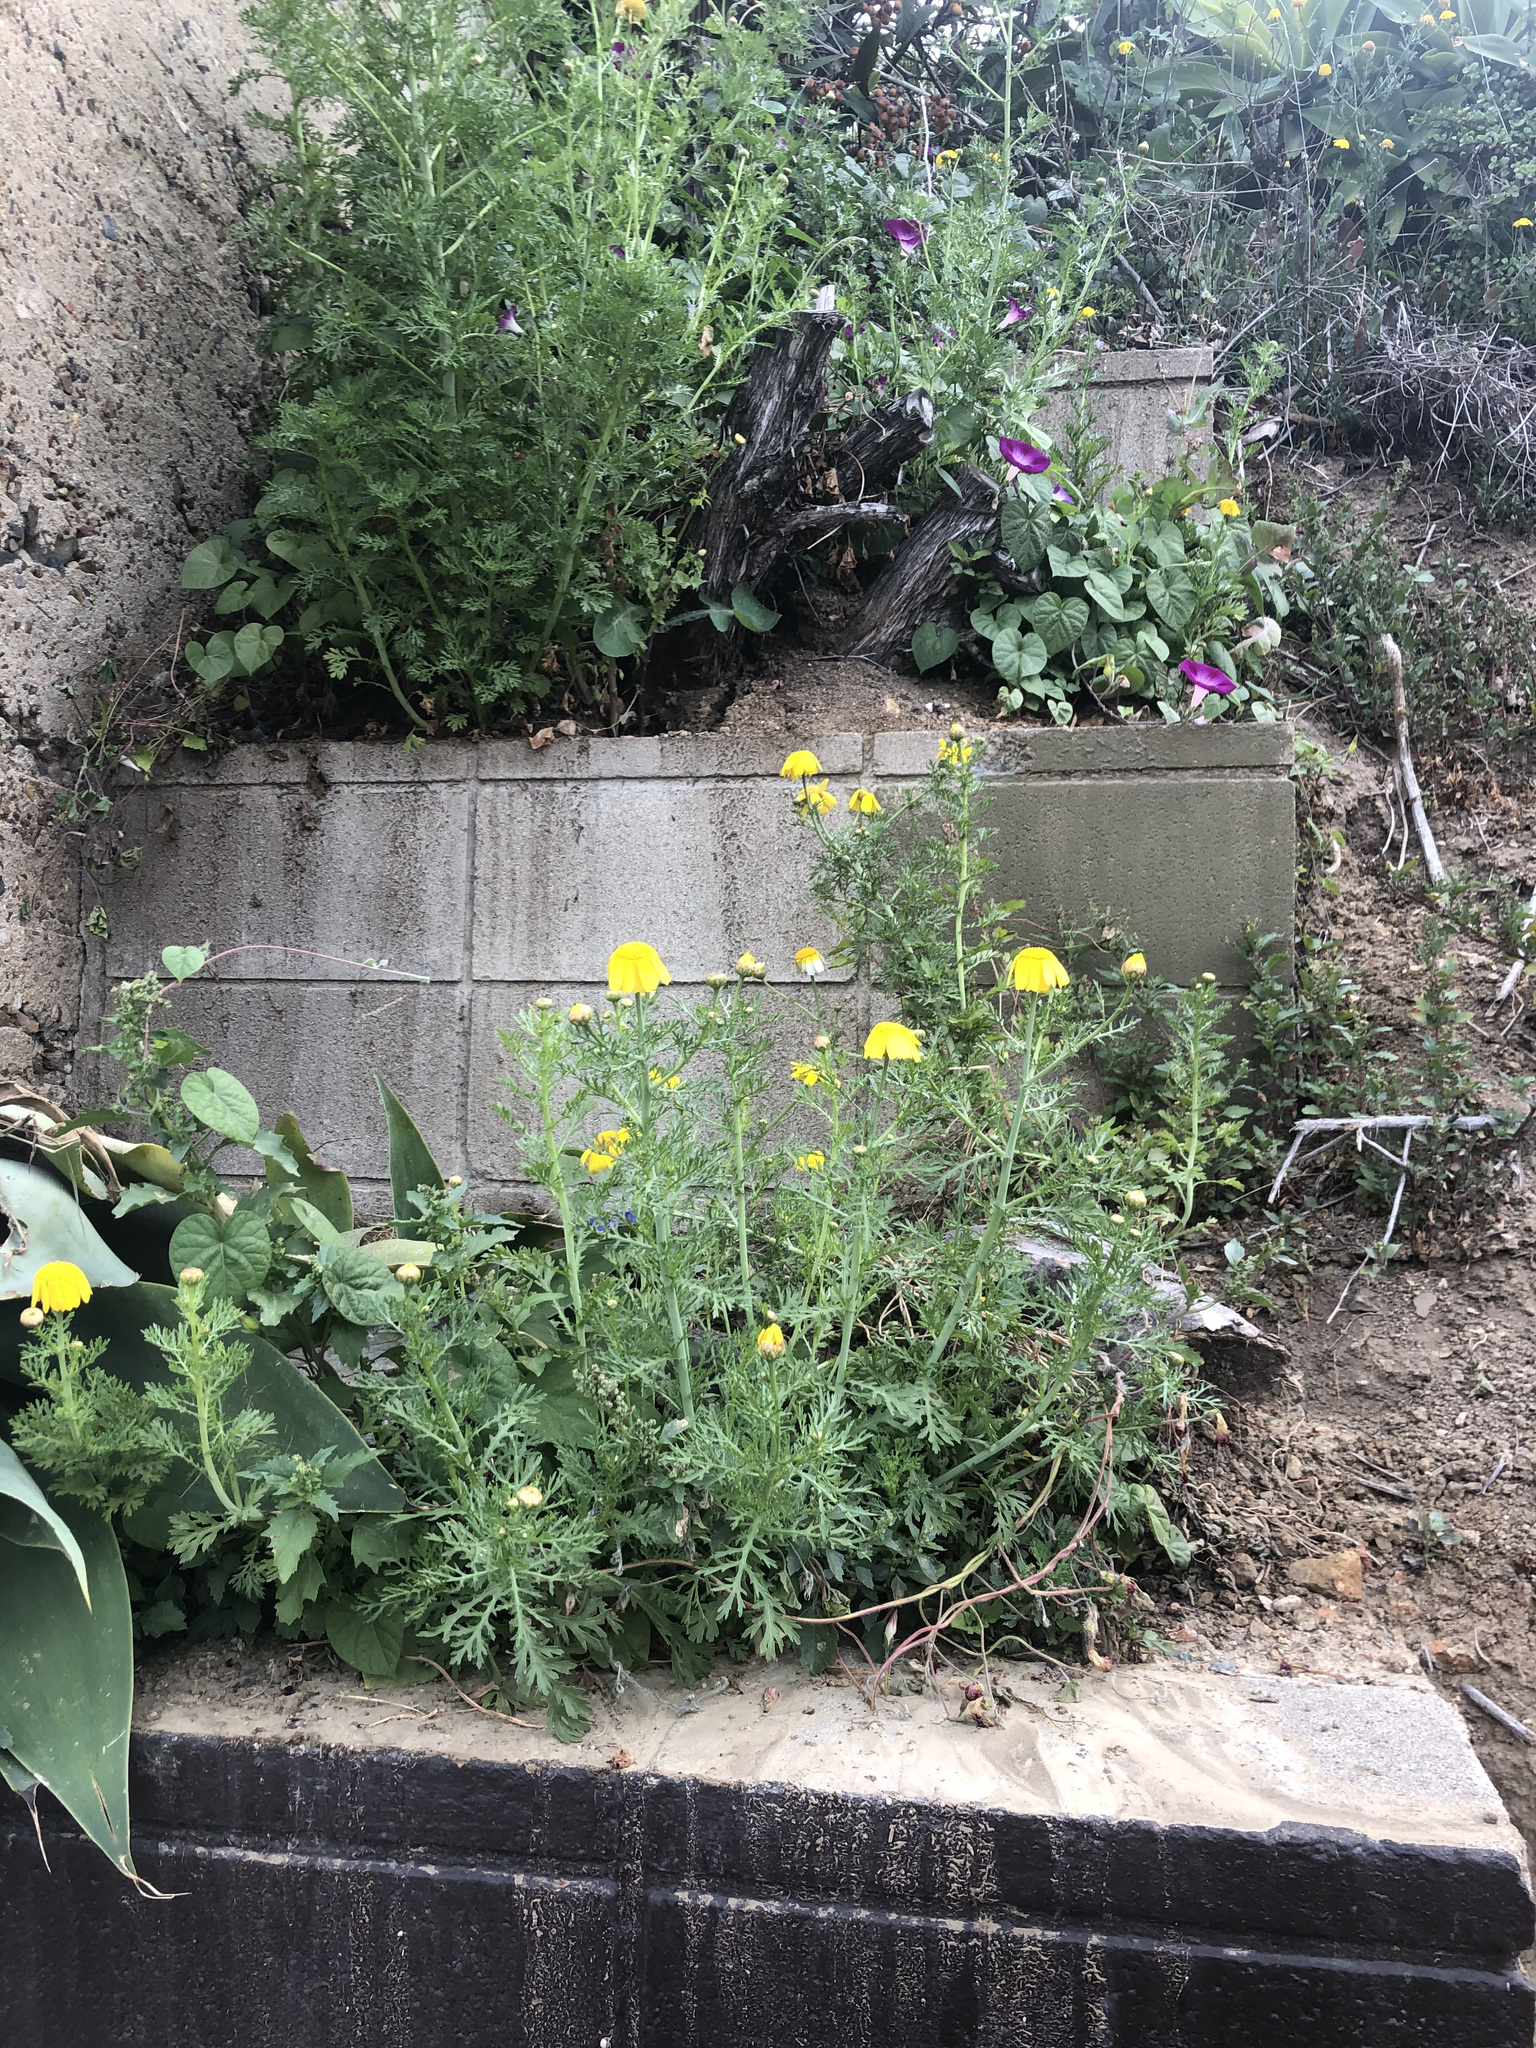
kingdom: Plantae
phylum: Tracheophyta
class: Magnoliopsida
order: Asterales
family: Asteraceae
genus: Glebionis
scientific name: Glebionis coronaria
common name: Crowndaisy
